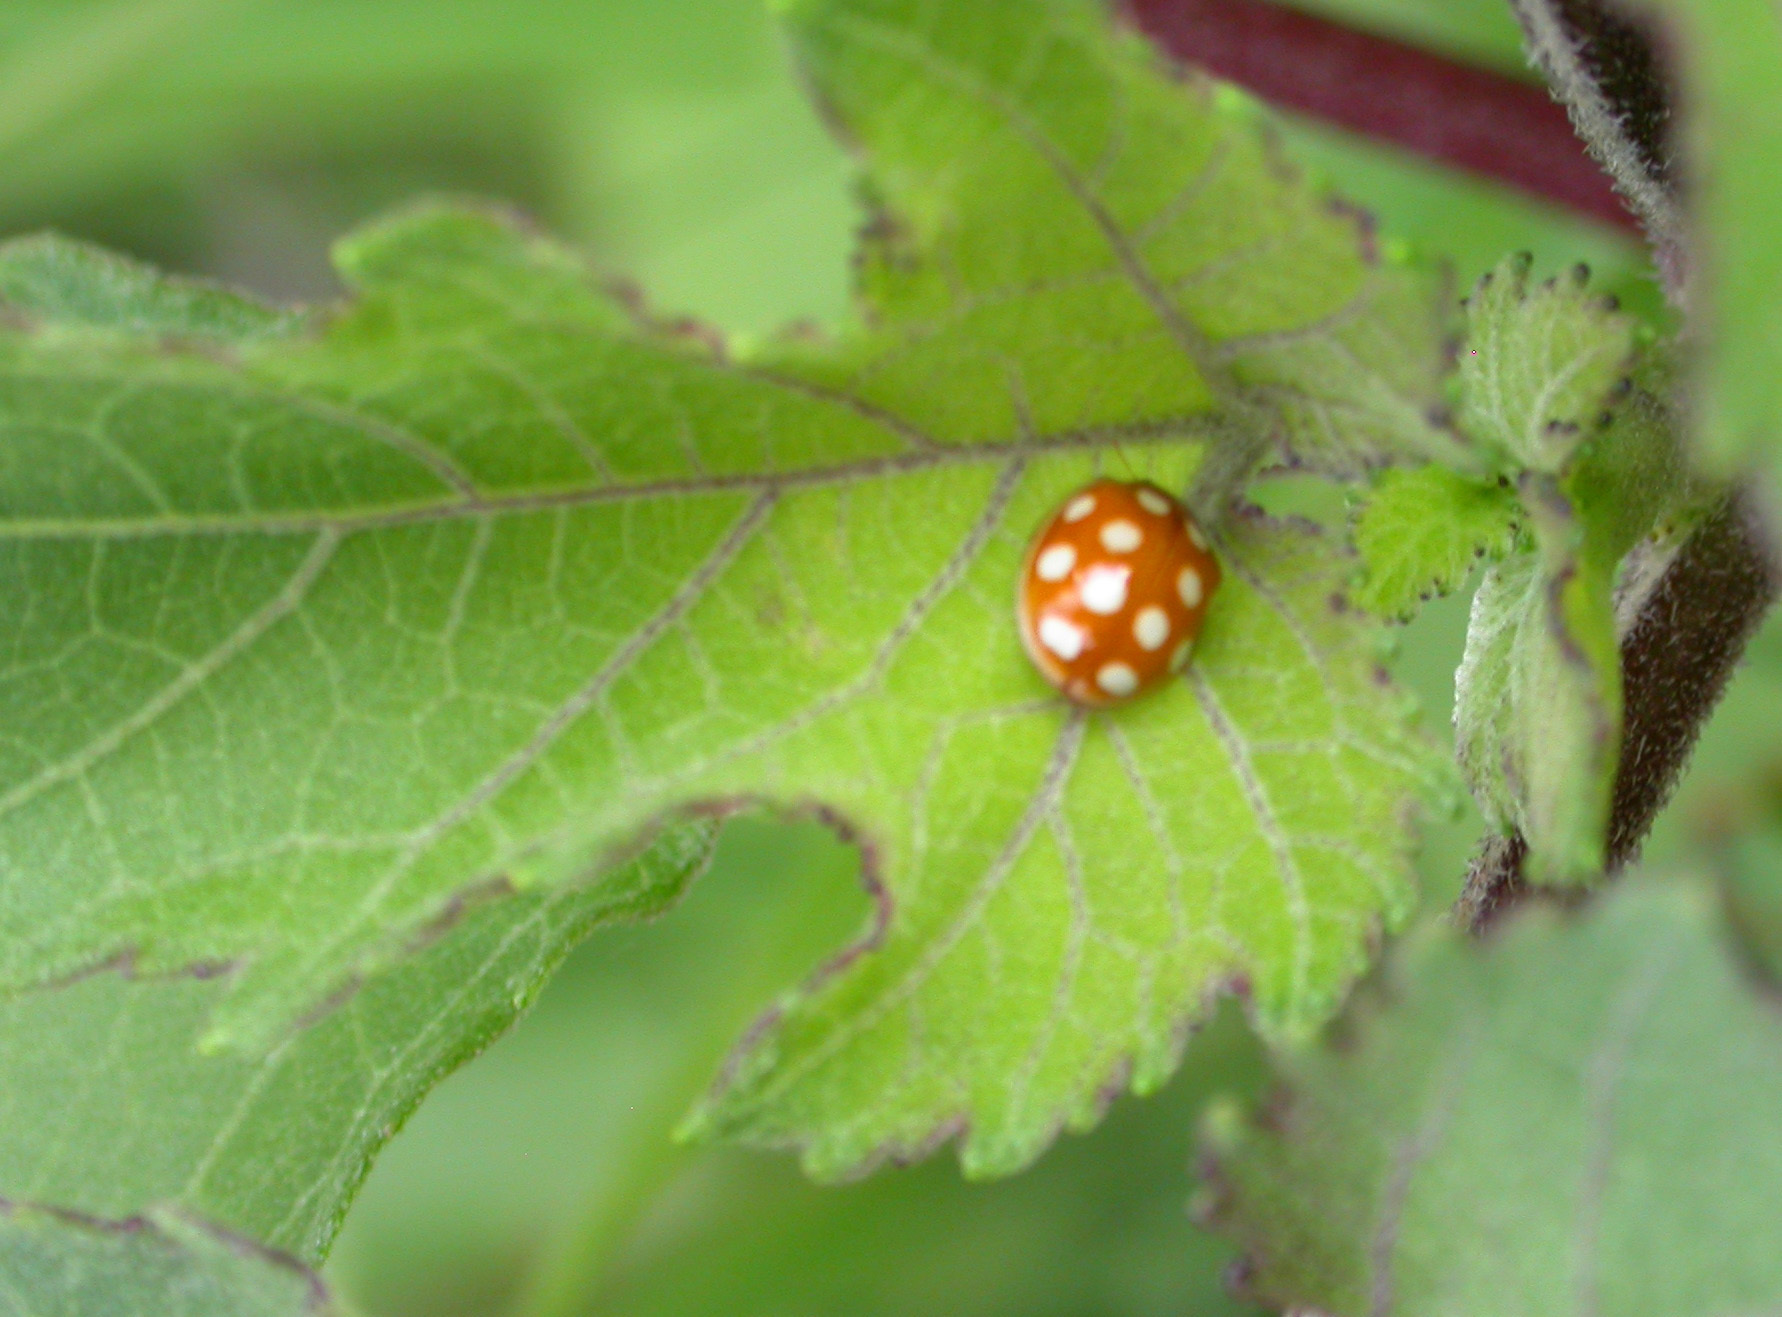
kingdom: Animalia
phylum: Arthropoda
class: Insecta
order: Coleoptera
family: Coccinellidae
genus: Calvia
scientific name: Calvia quindecimguttata
